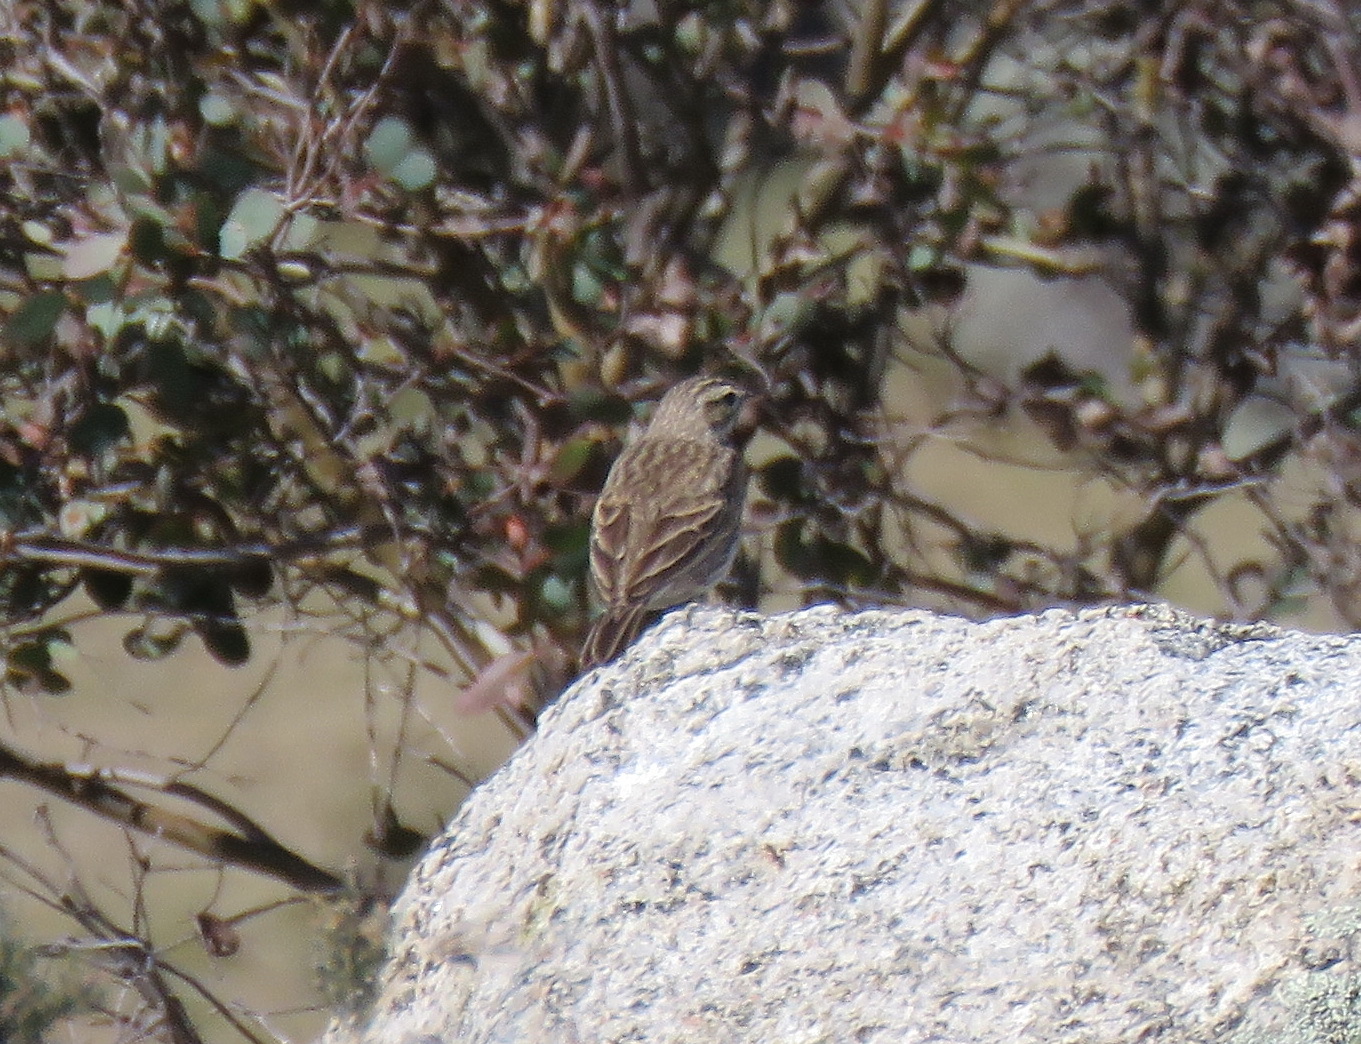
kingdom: Animalia
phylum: Chordata
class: Aves
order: Passeriformes
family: Motacillidae
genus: Anthus
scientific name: Anthus australis
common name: Australian pipit
